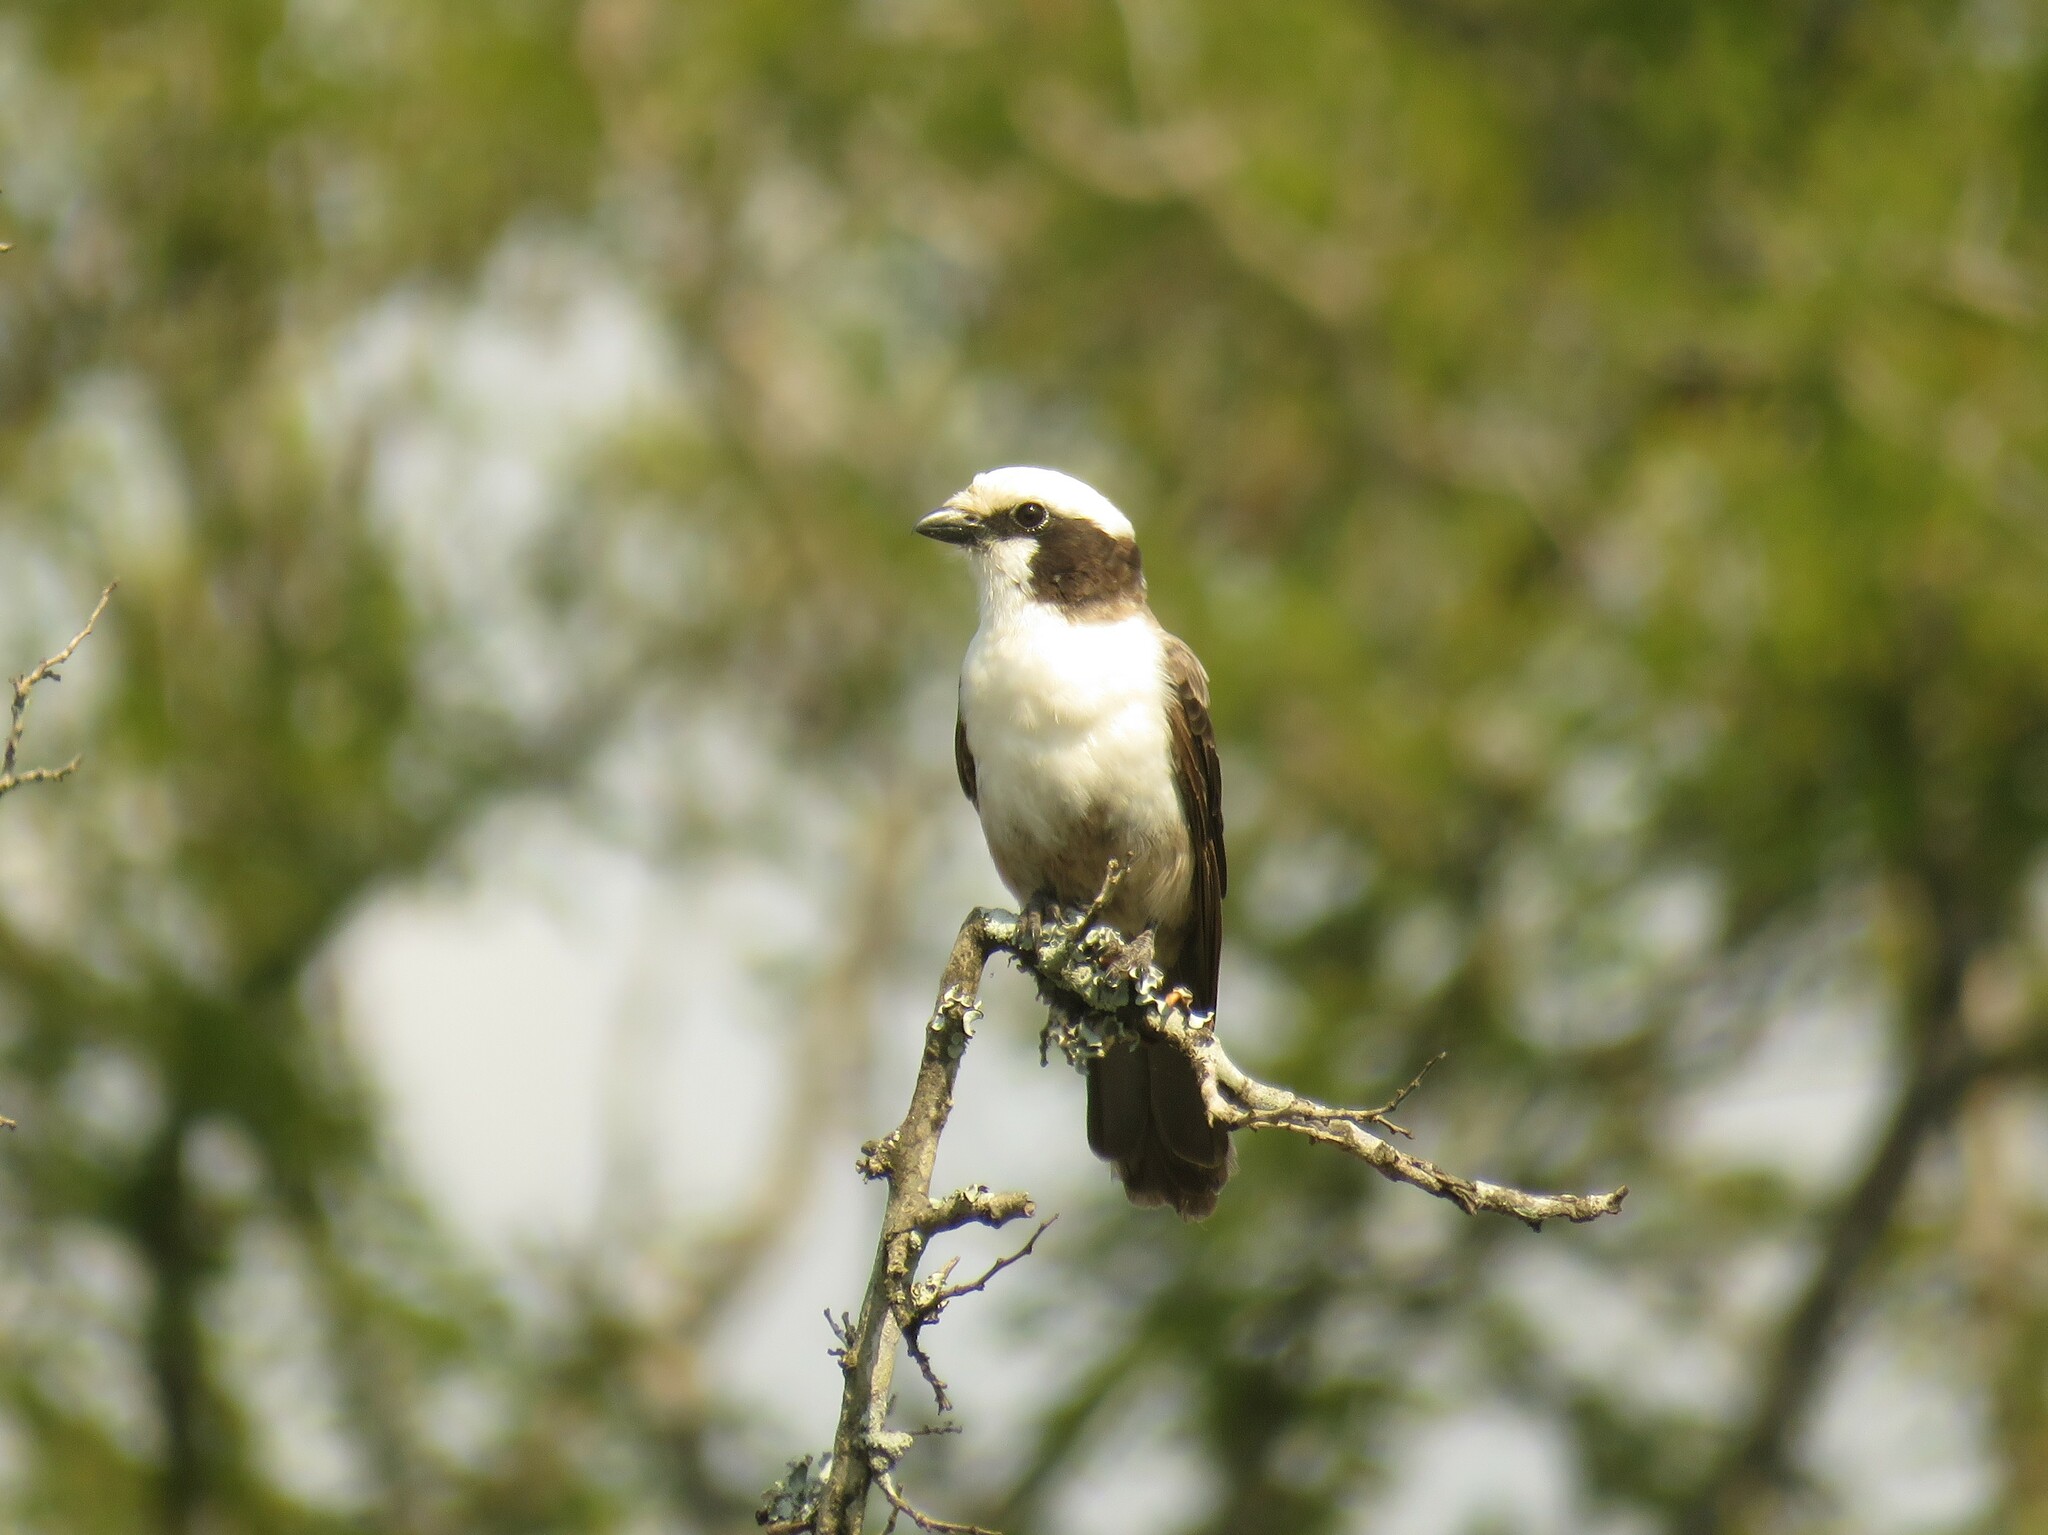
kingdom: Animalia
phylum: Chordata
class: Aves
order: Passeriformes
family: Laniidae
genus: Eurocephalus
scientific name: Eurocephalus anguitimens
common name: Southern white-crowned shrike
